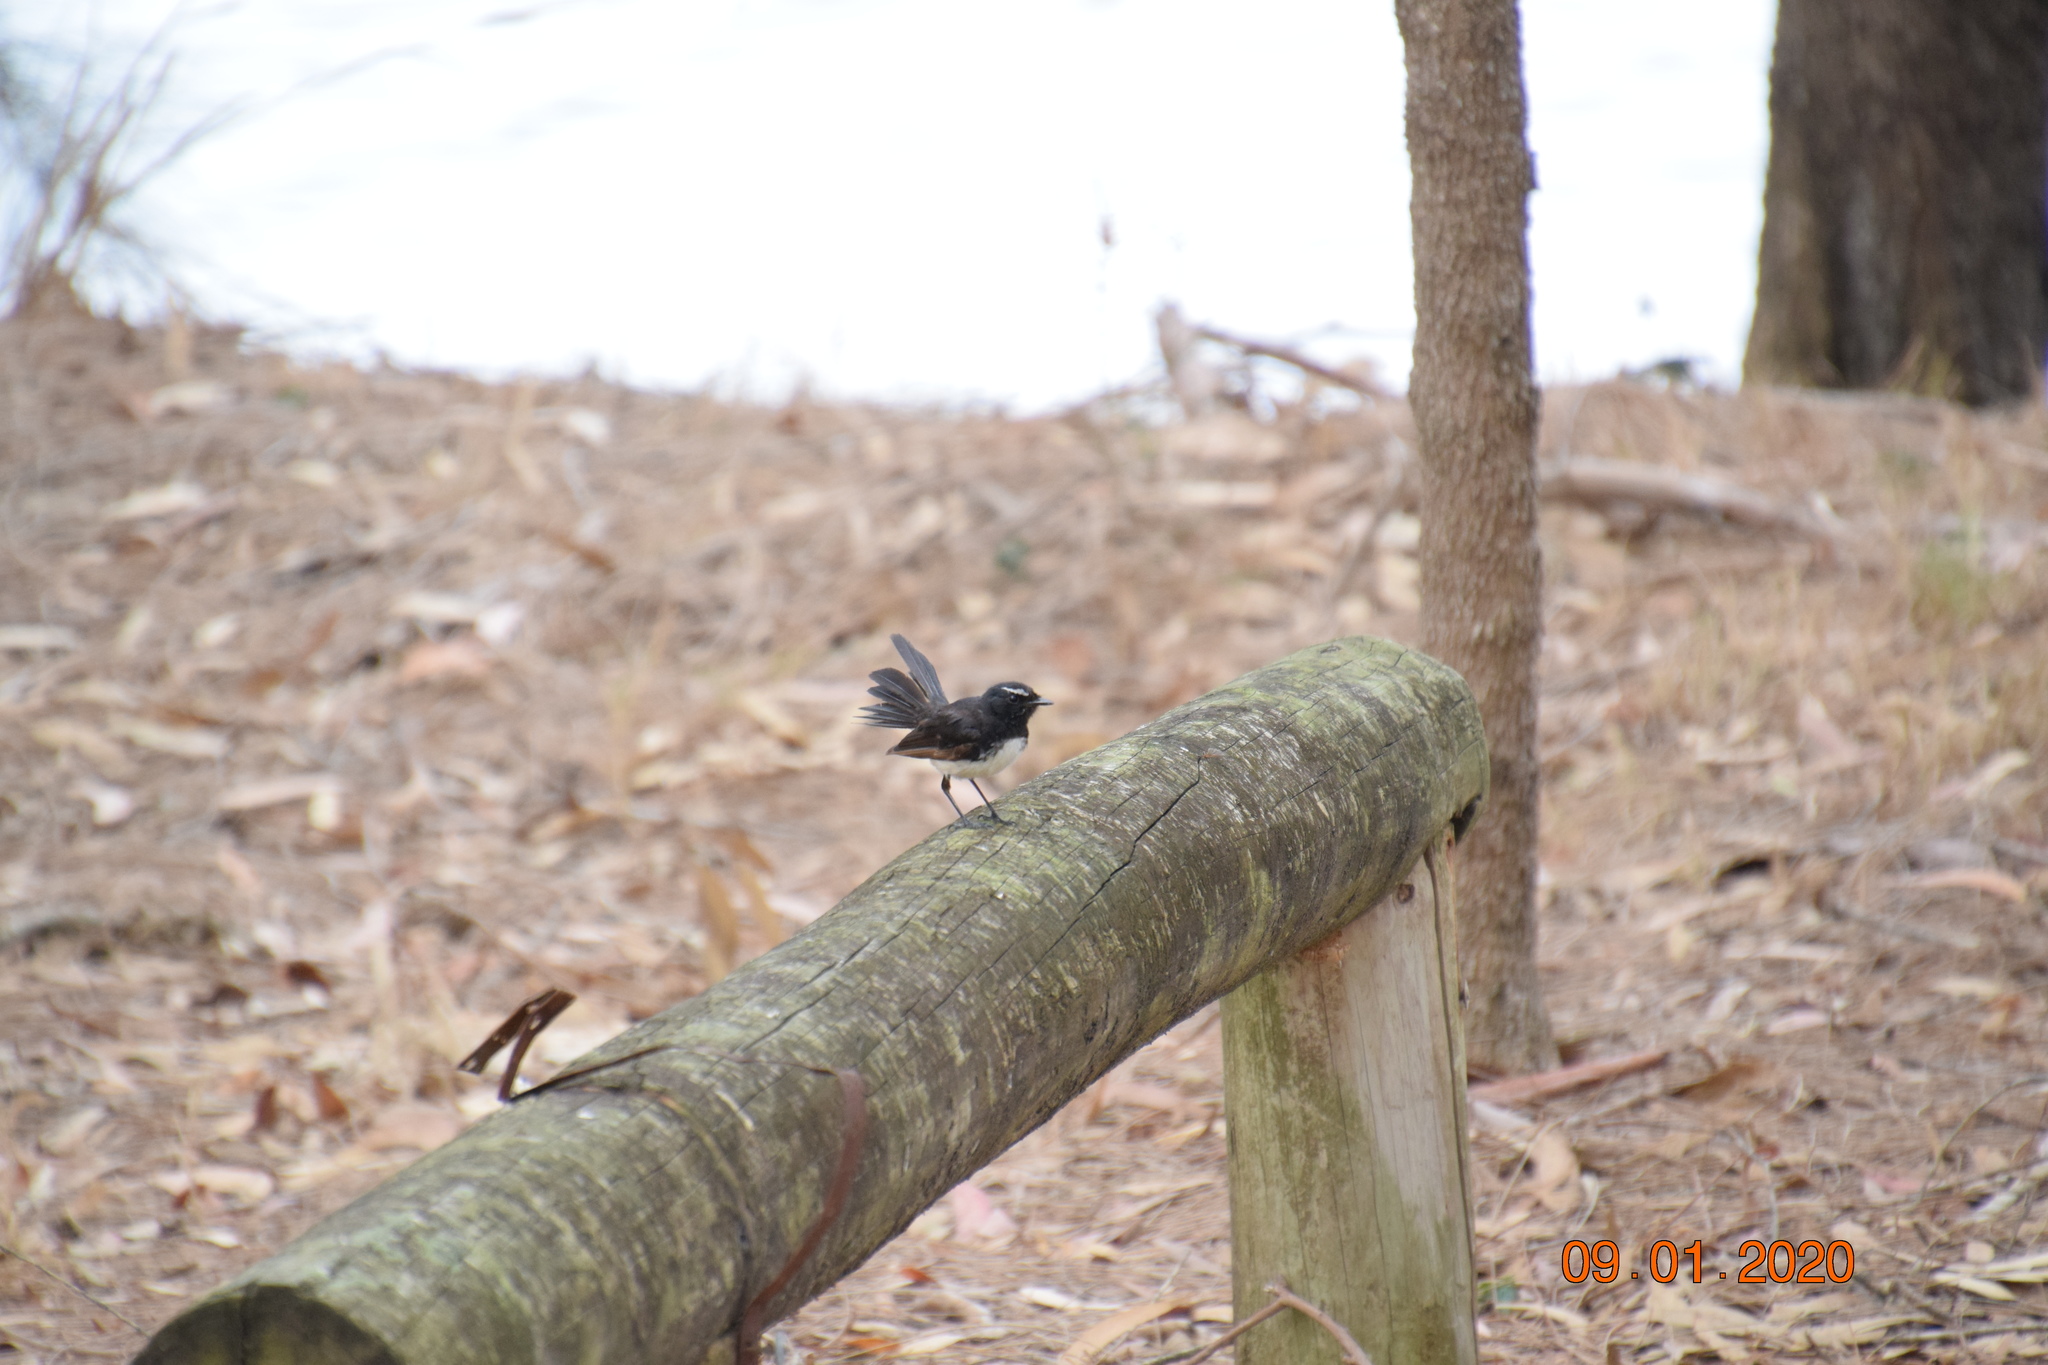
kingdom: Animalia
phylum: Chordata
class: Aves
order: Passeriformes
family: Rhipiduridae
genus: Rhipidura
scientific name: Rhipidura leucophrys
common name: Willie wagtail
